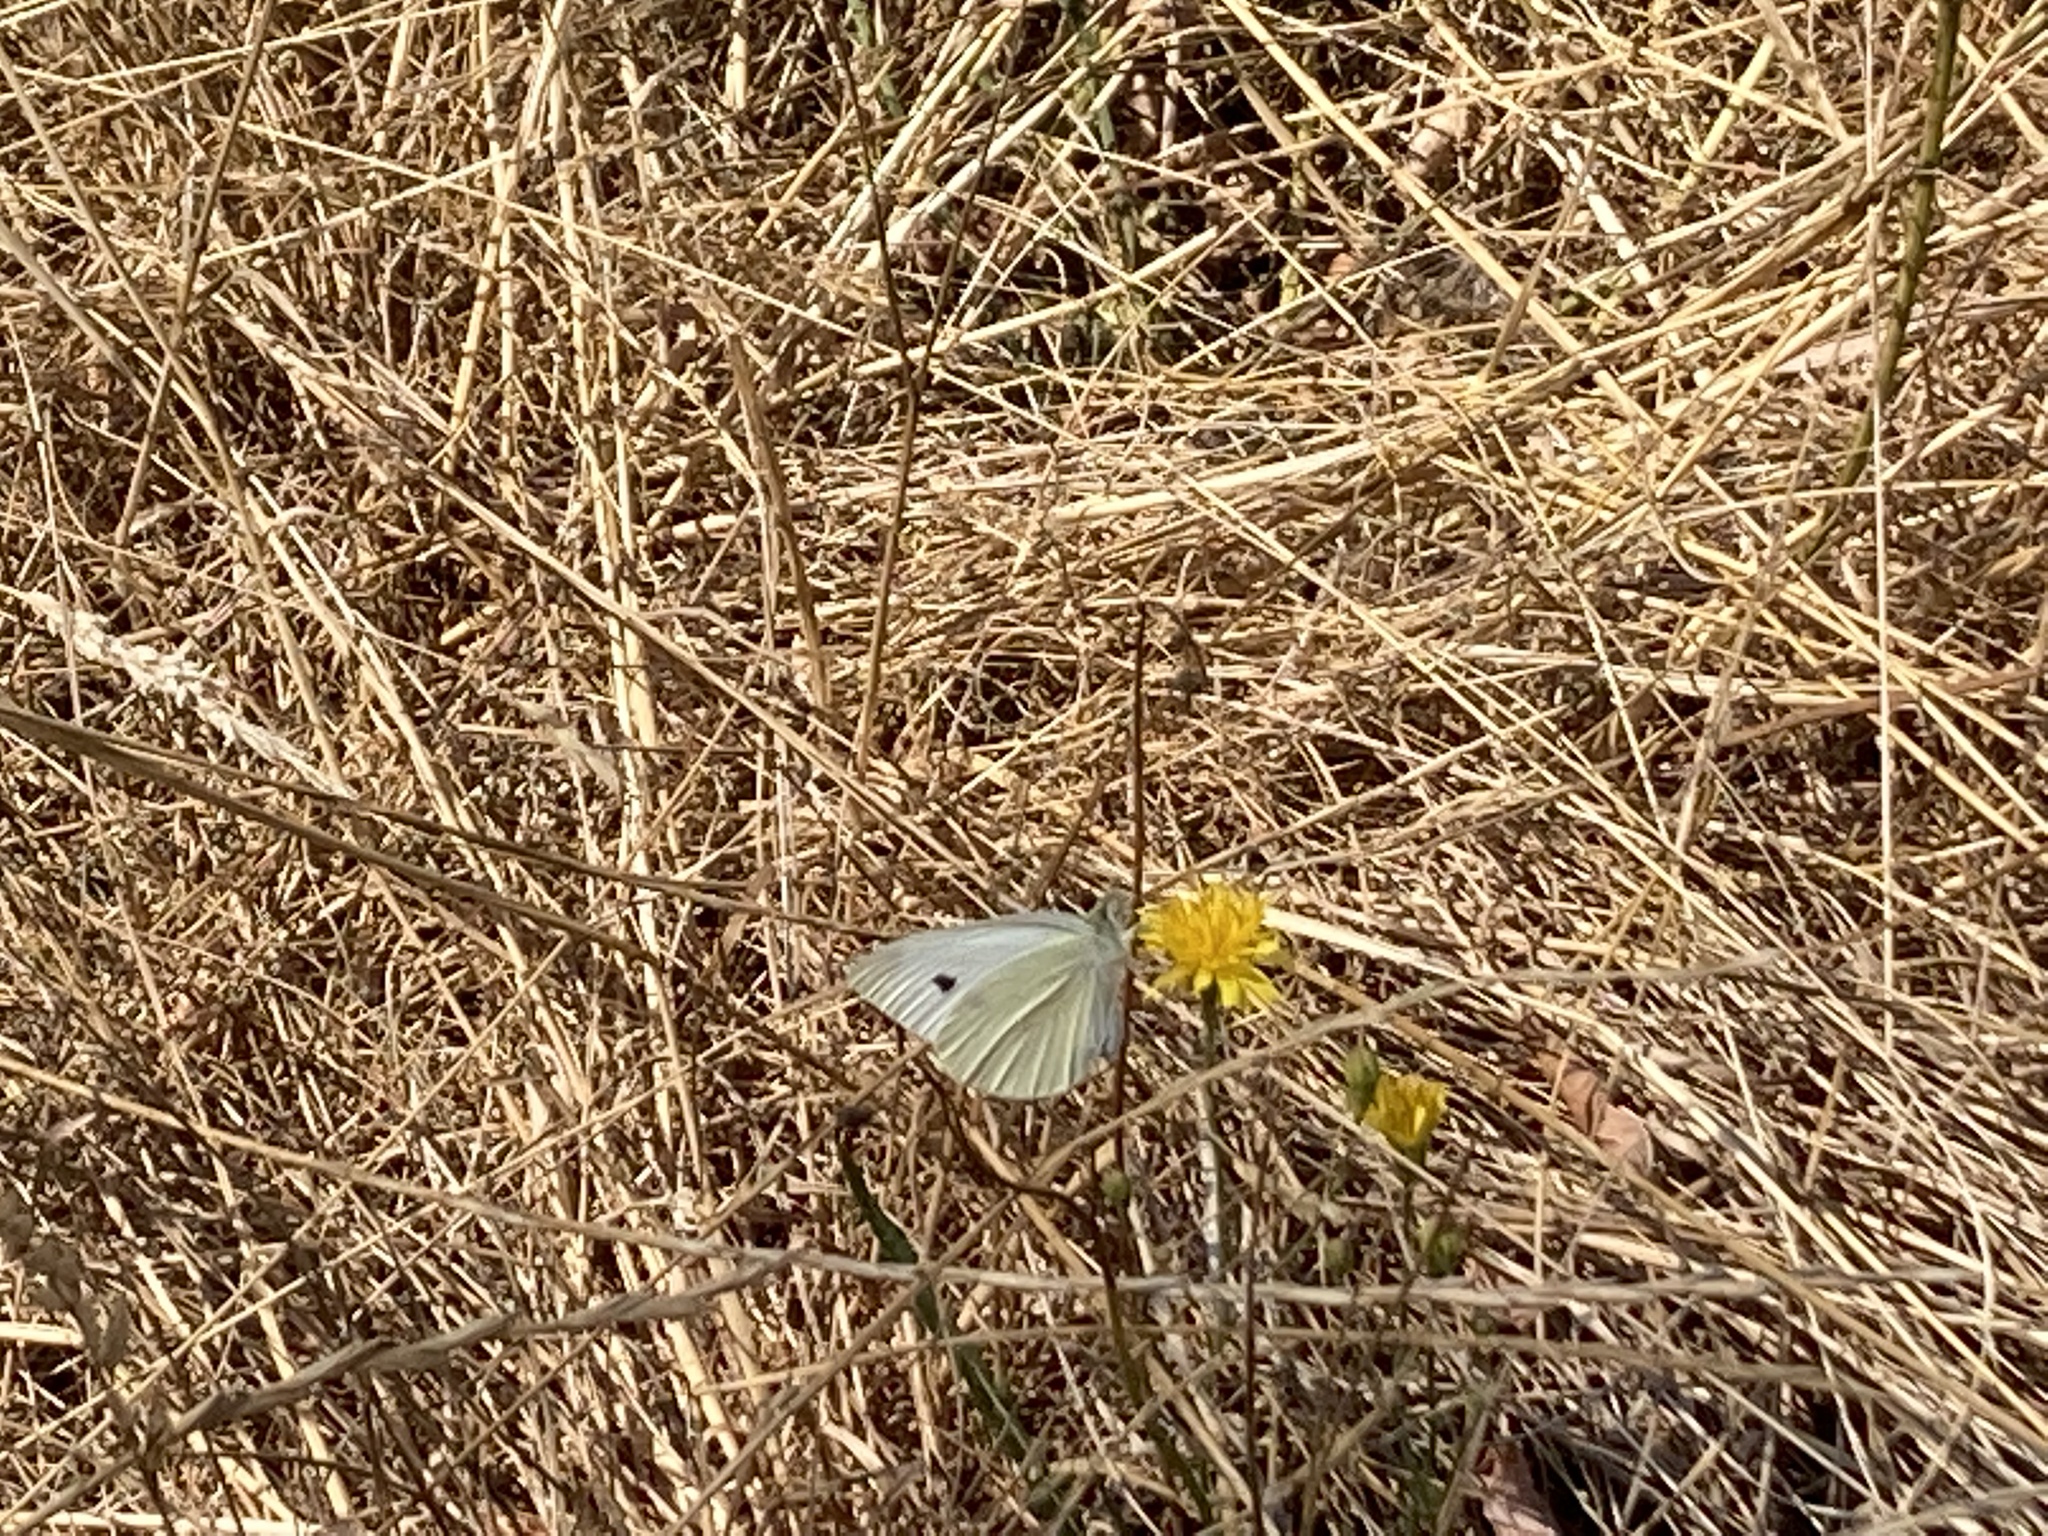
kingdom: Animalia
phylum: Arthropoda
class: Insecta
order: Lepidoptera
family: Pieridae
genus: Pieris
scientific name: Pieris rapae
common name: Small white
